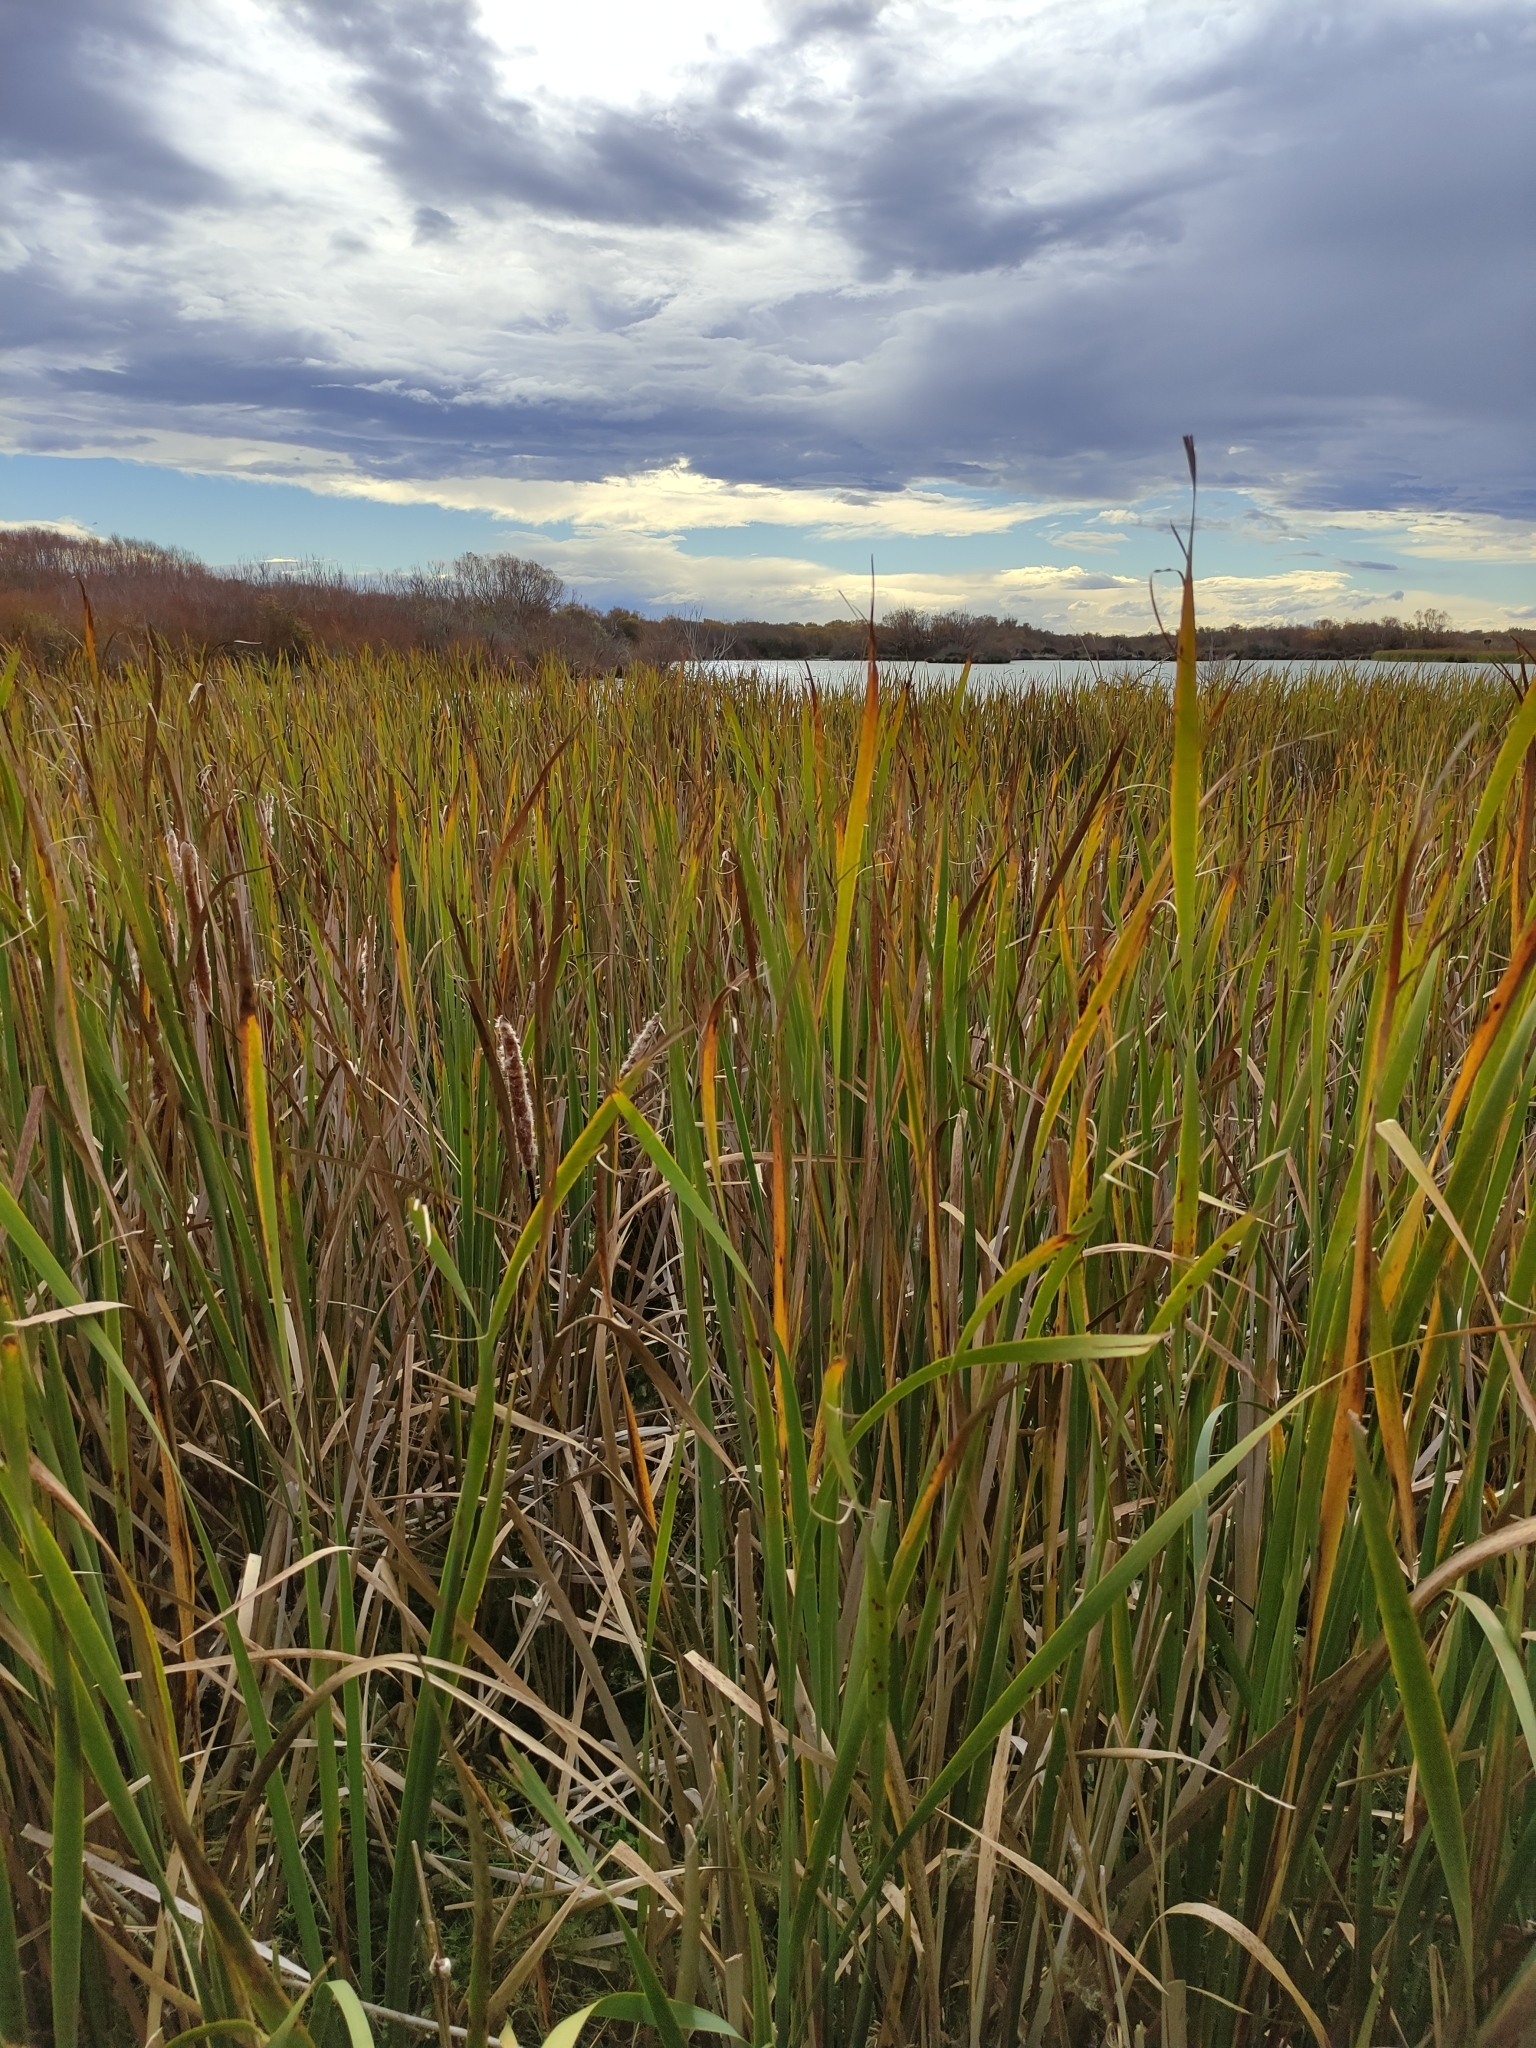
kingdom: Plantae
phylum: Tracheophyta
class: Liliopsida
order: Poales
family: Typhaceae
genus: Typha
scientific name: Typha orientalis
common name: Bullrush
